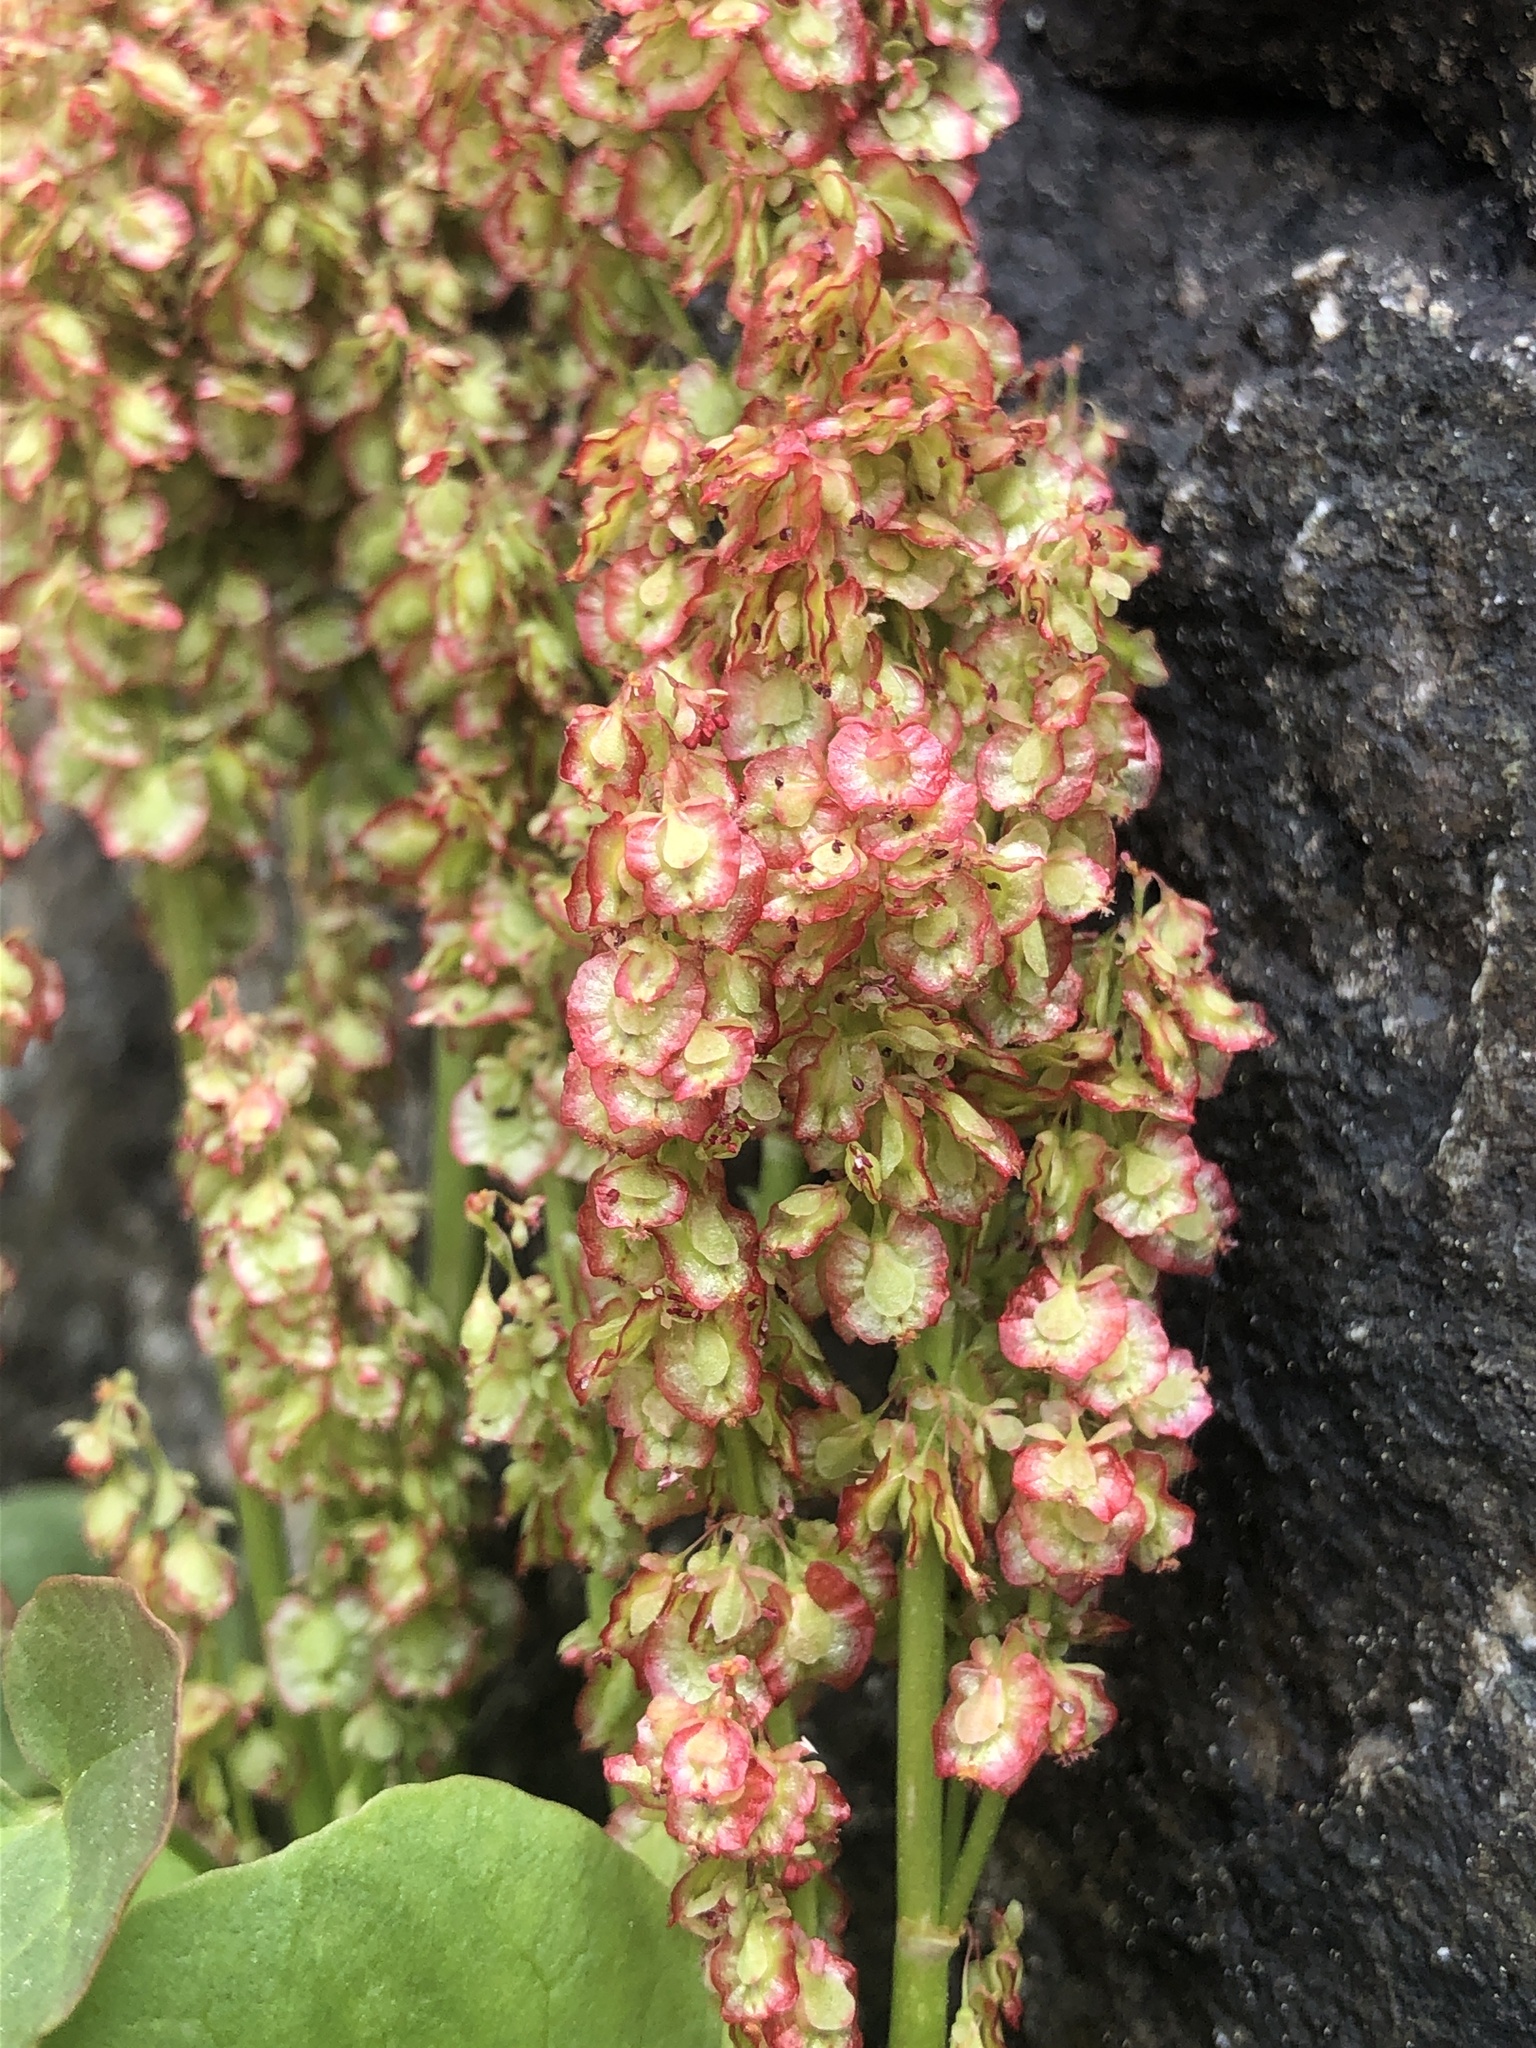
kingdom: Plantae
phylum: Tracheophyta
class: Magnoliopsida
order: Caryophyllales
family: Polygonaceae
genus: Oxyria
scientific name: Oxyria digyna
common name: Alpine mountain-sorrel
